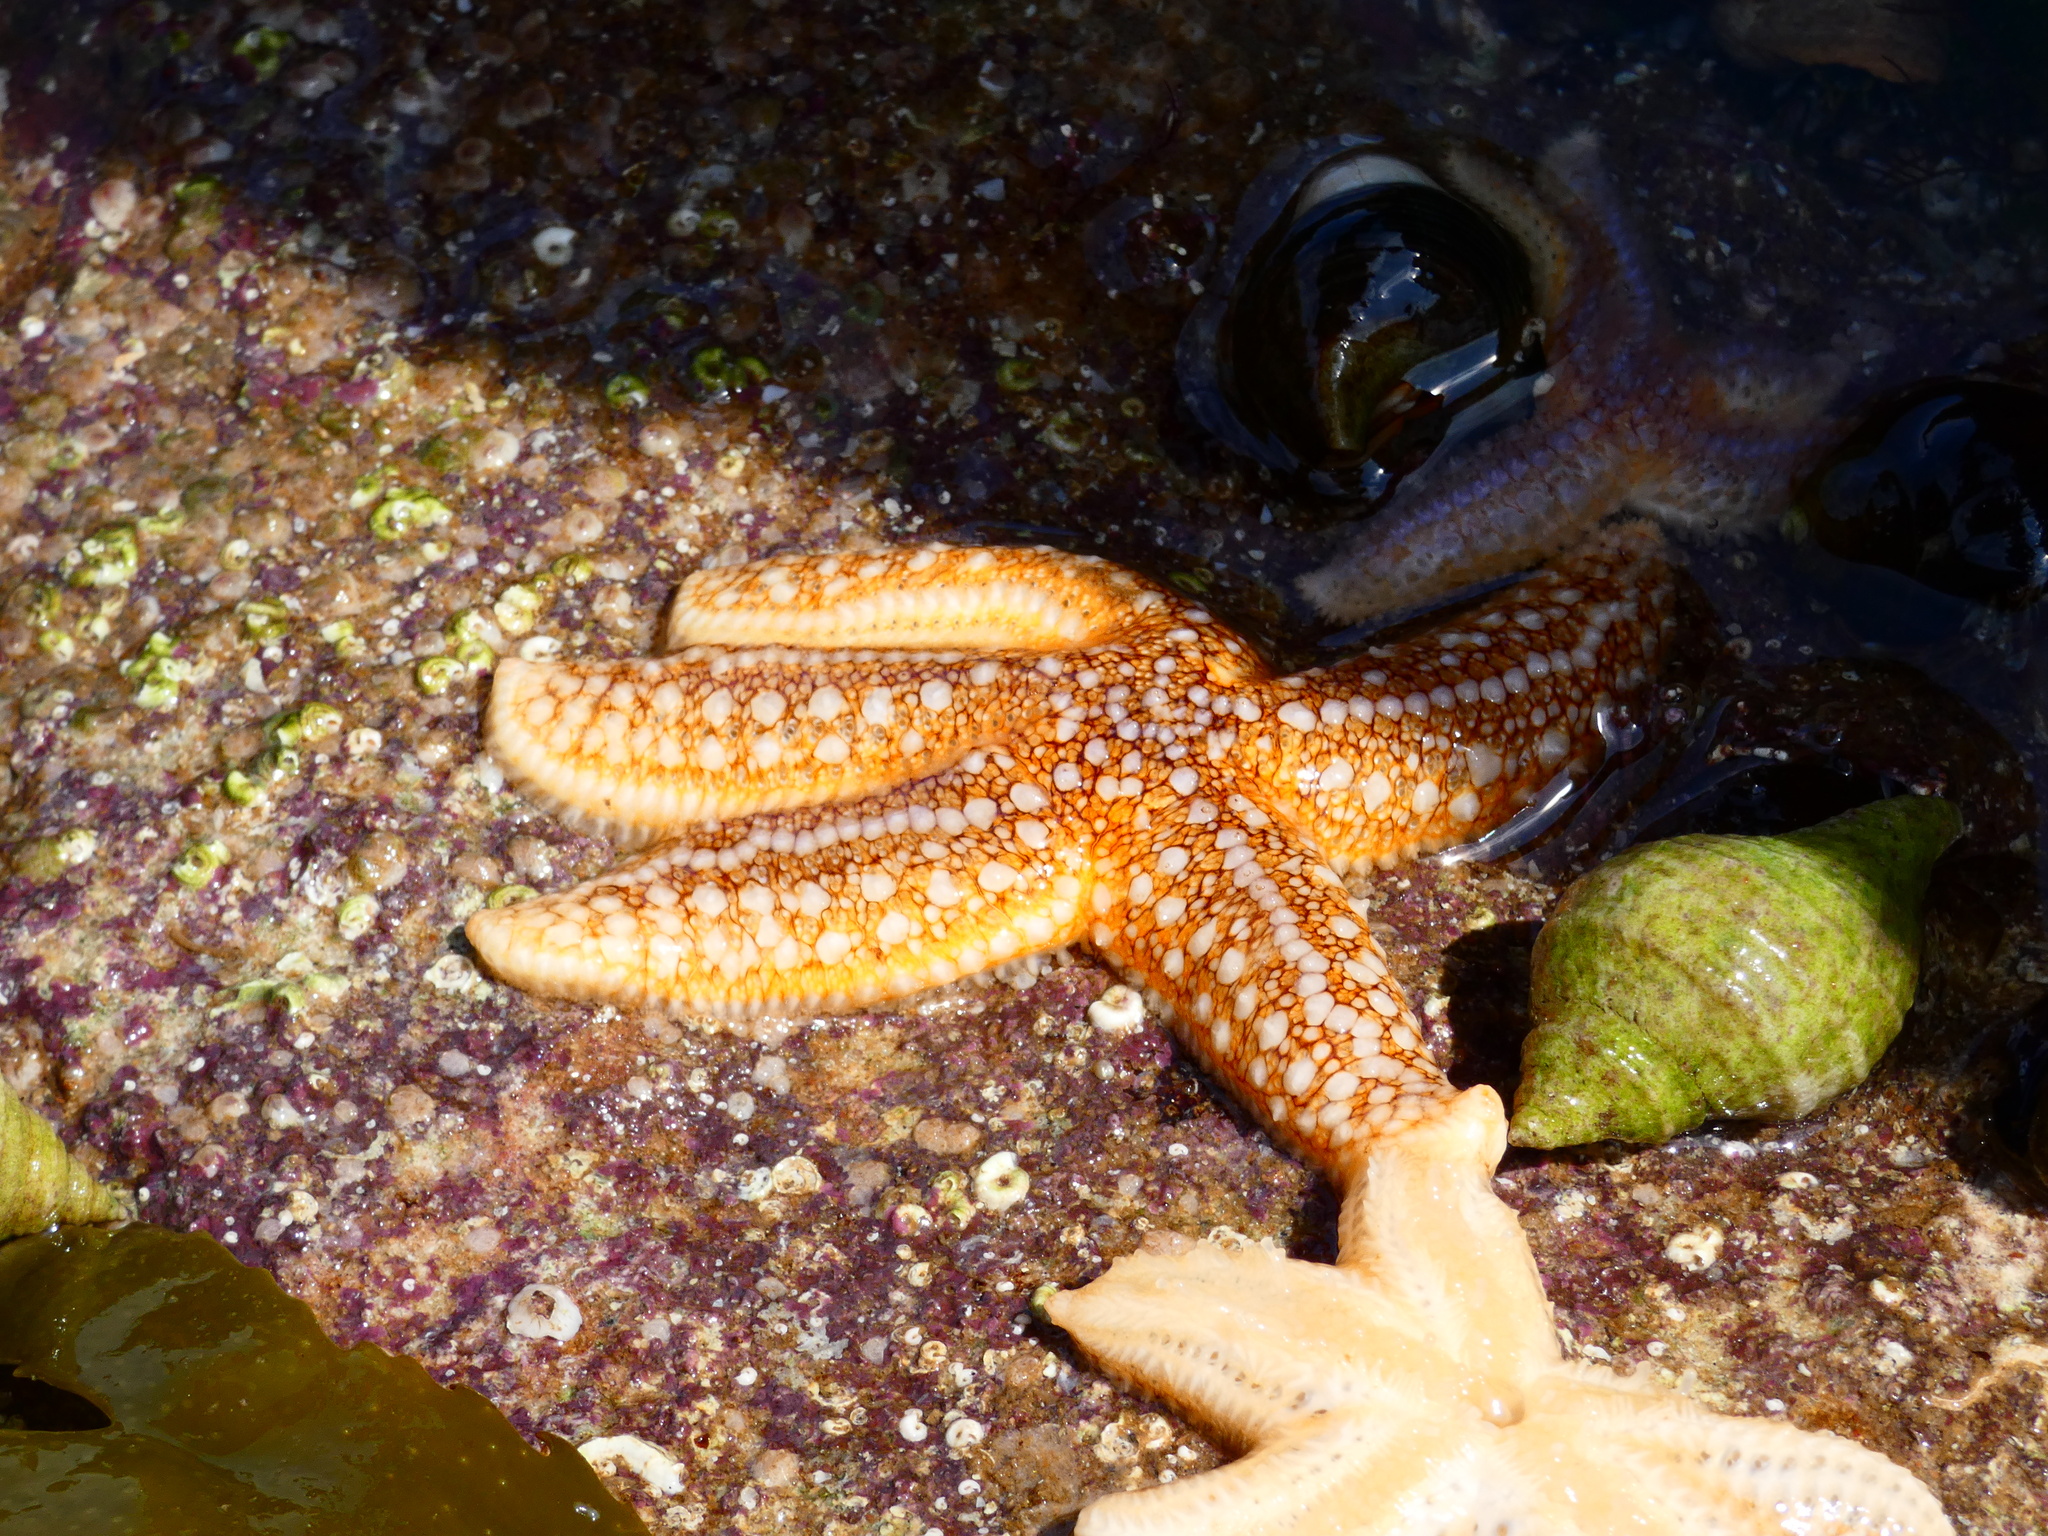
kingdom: Animalia
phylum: Echinodermata
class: Asteroidea
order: Forcipulatida
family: Asteriidae
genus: Asterias
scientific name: Asterias rubens
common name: Common starfish
